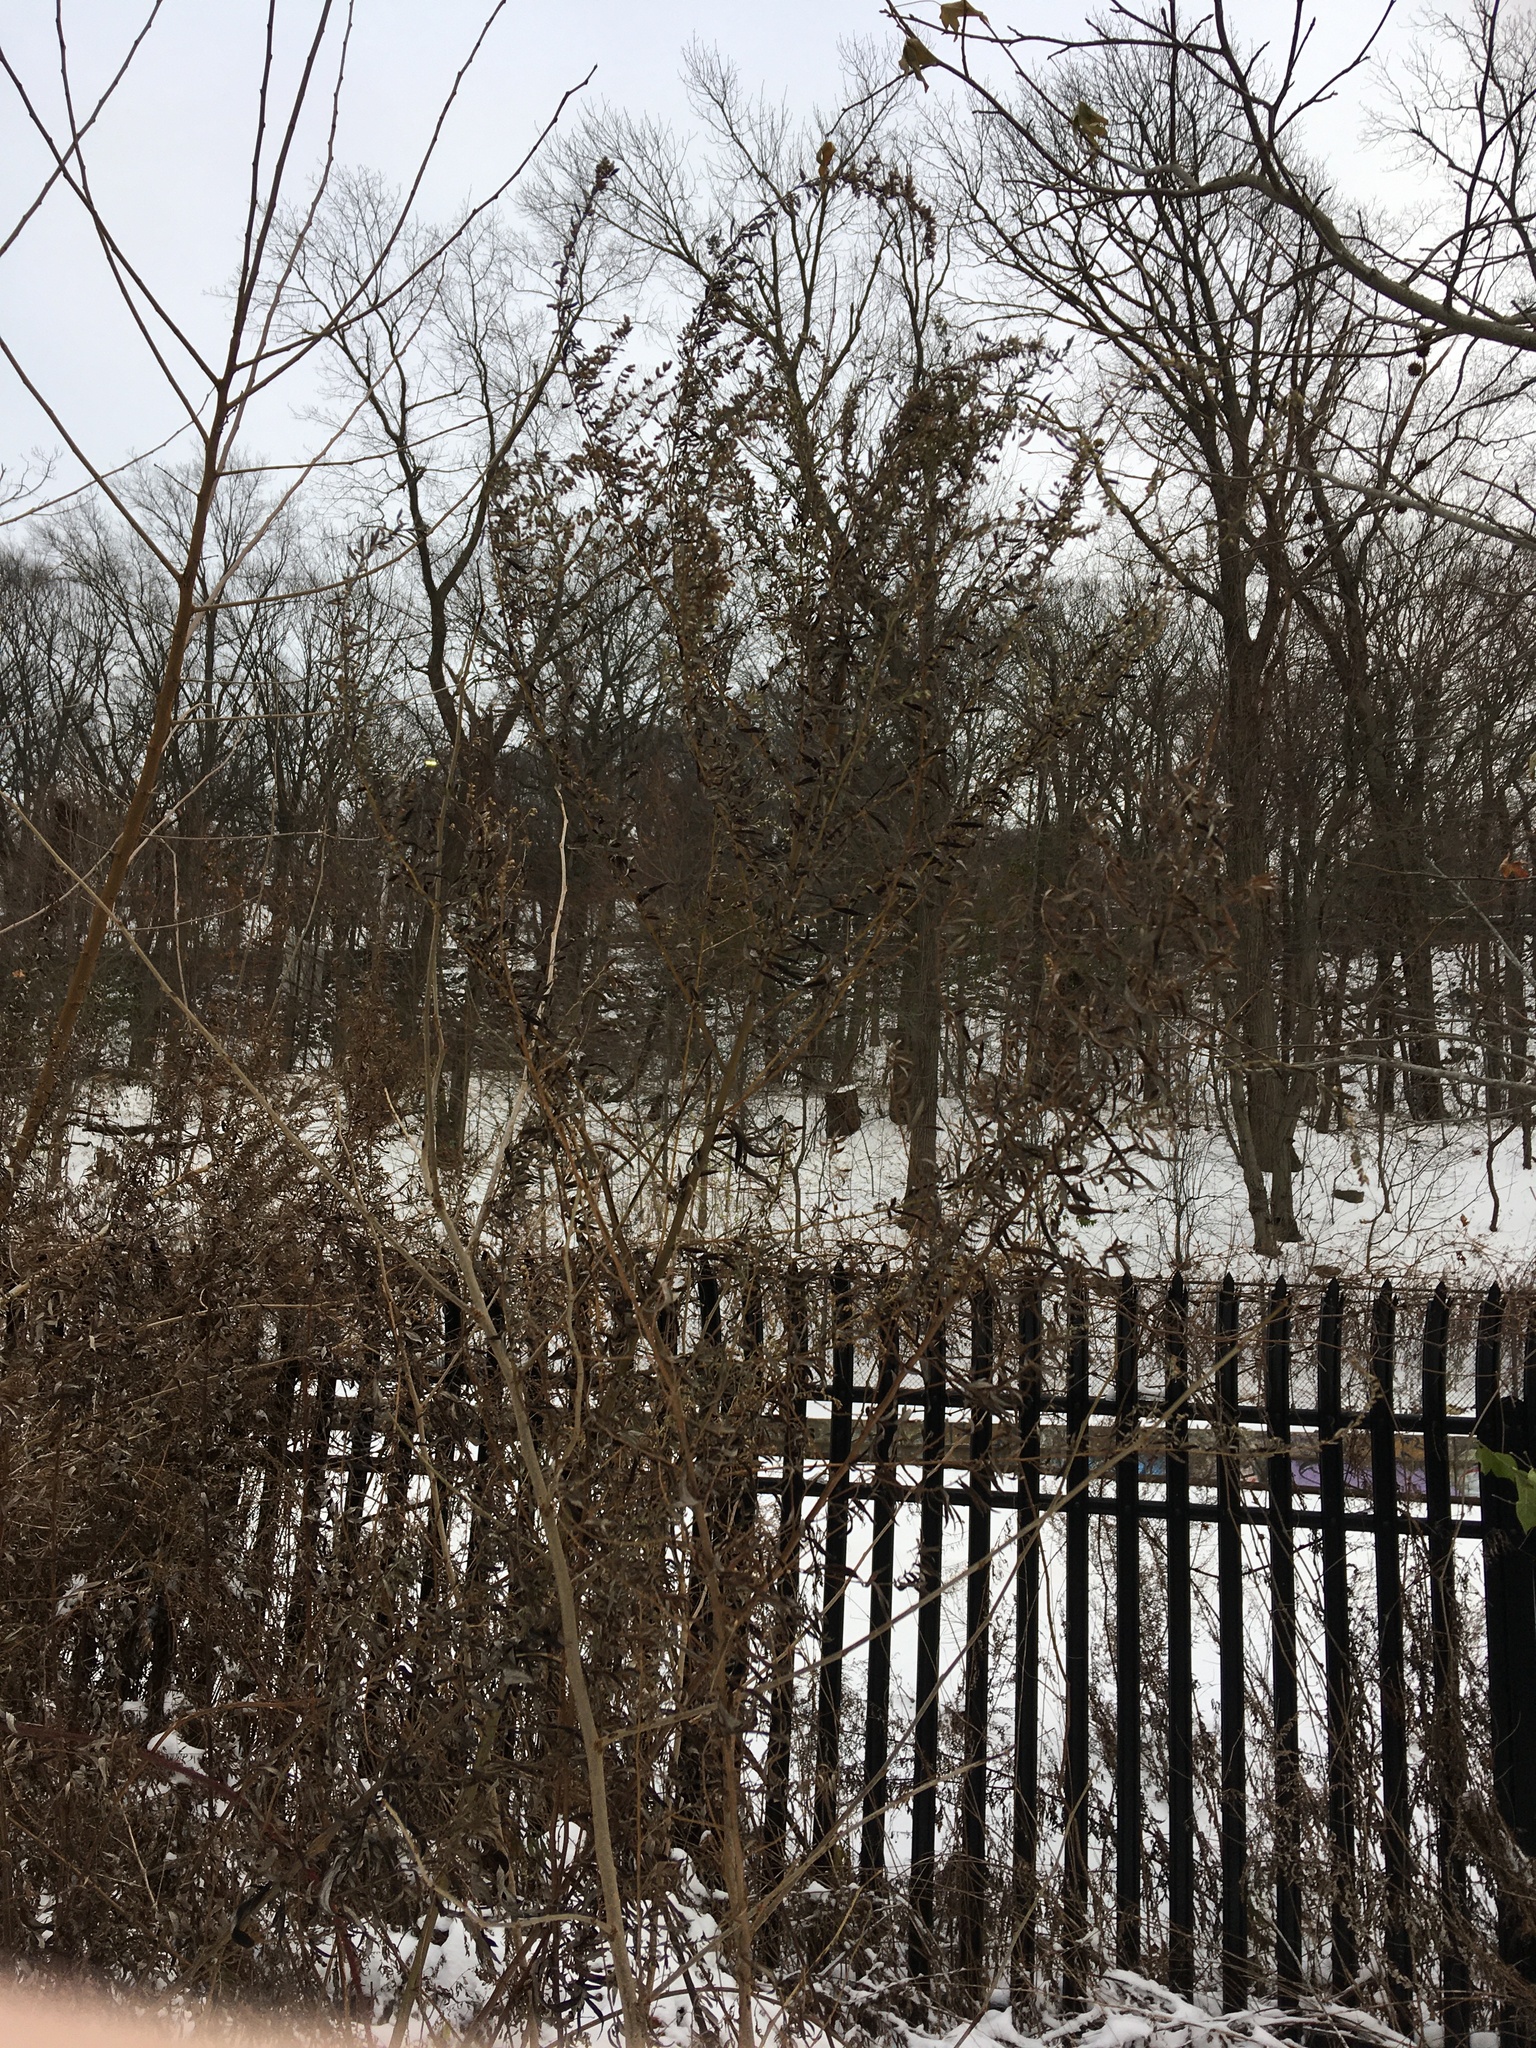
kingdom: Plantae
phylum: Tracheophyta
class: Magnoliopsida
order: Asterales
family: Asteraceae
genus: Artemisia
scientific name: Artemisia vulgaris
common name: Mugwort
